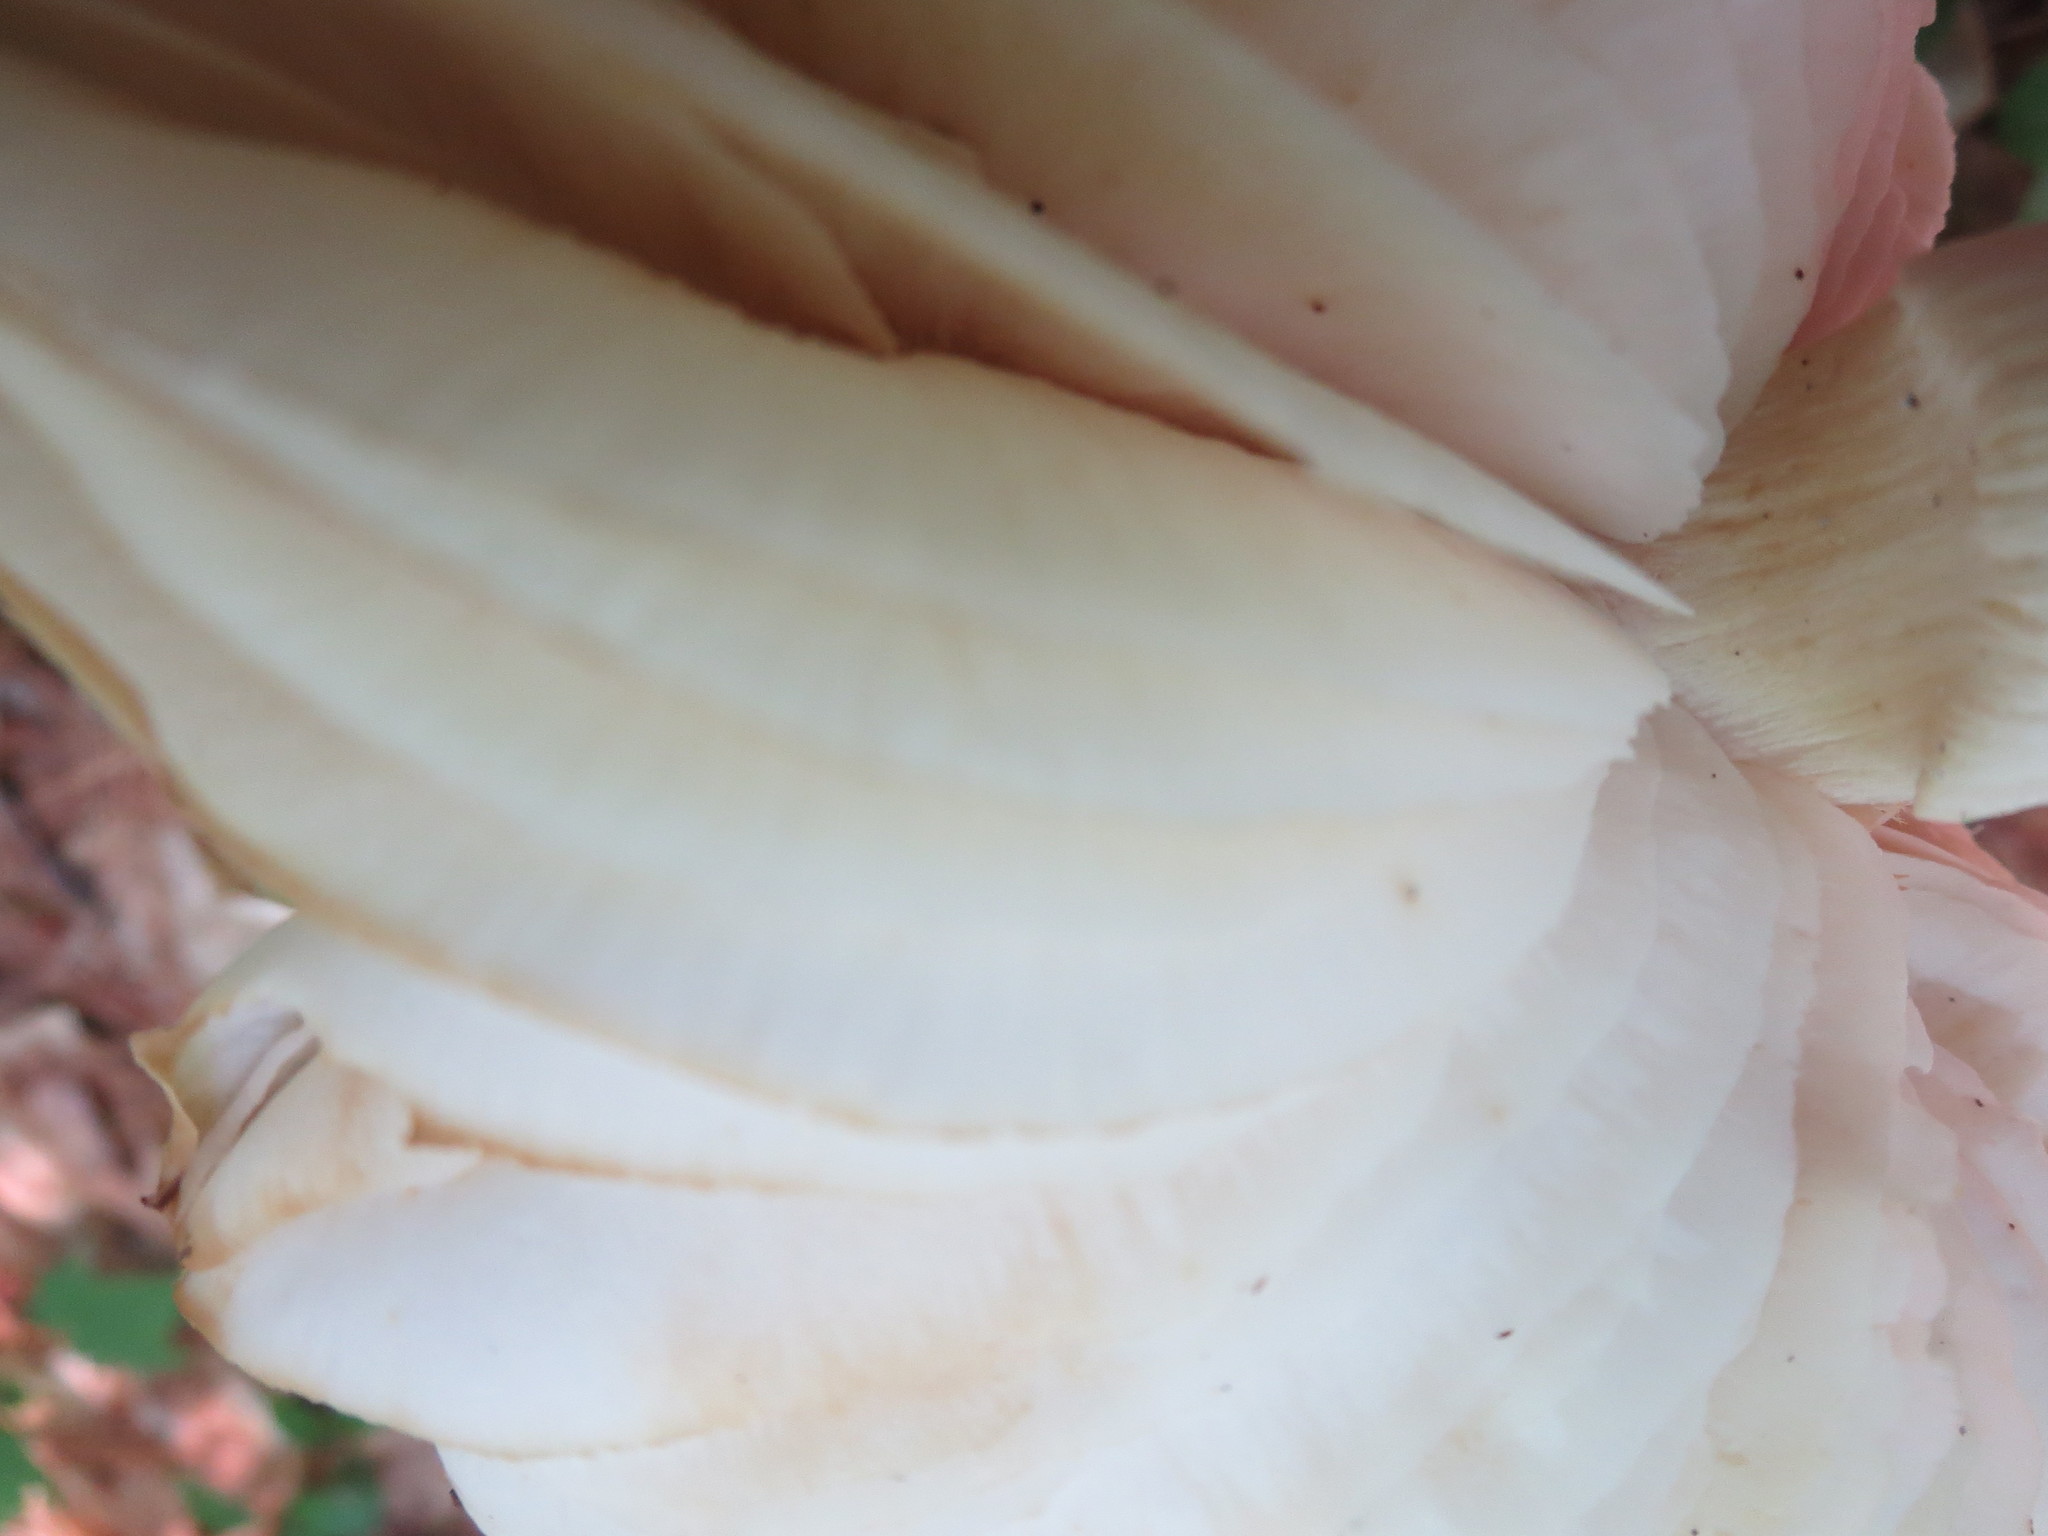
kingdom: Fungi
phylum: Basidiomycota
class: Agaricomycetes
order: Agaricales
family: Tricholomataceae
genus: Megacollybia
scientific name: Megacollybia rodmanii
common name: Eastern american platterful mushroom
